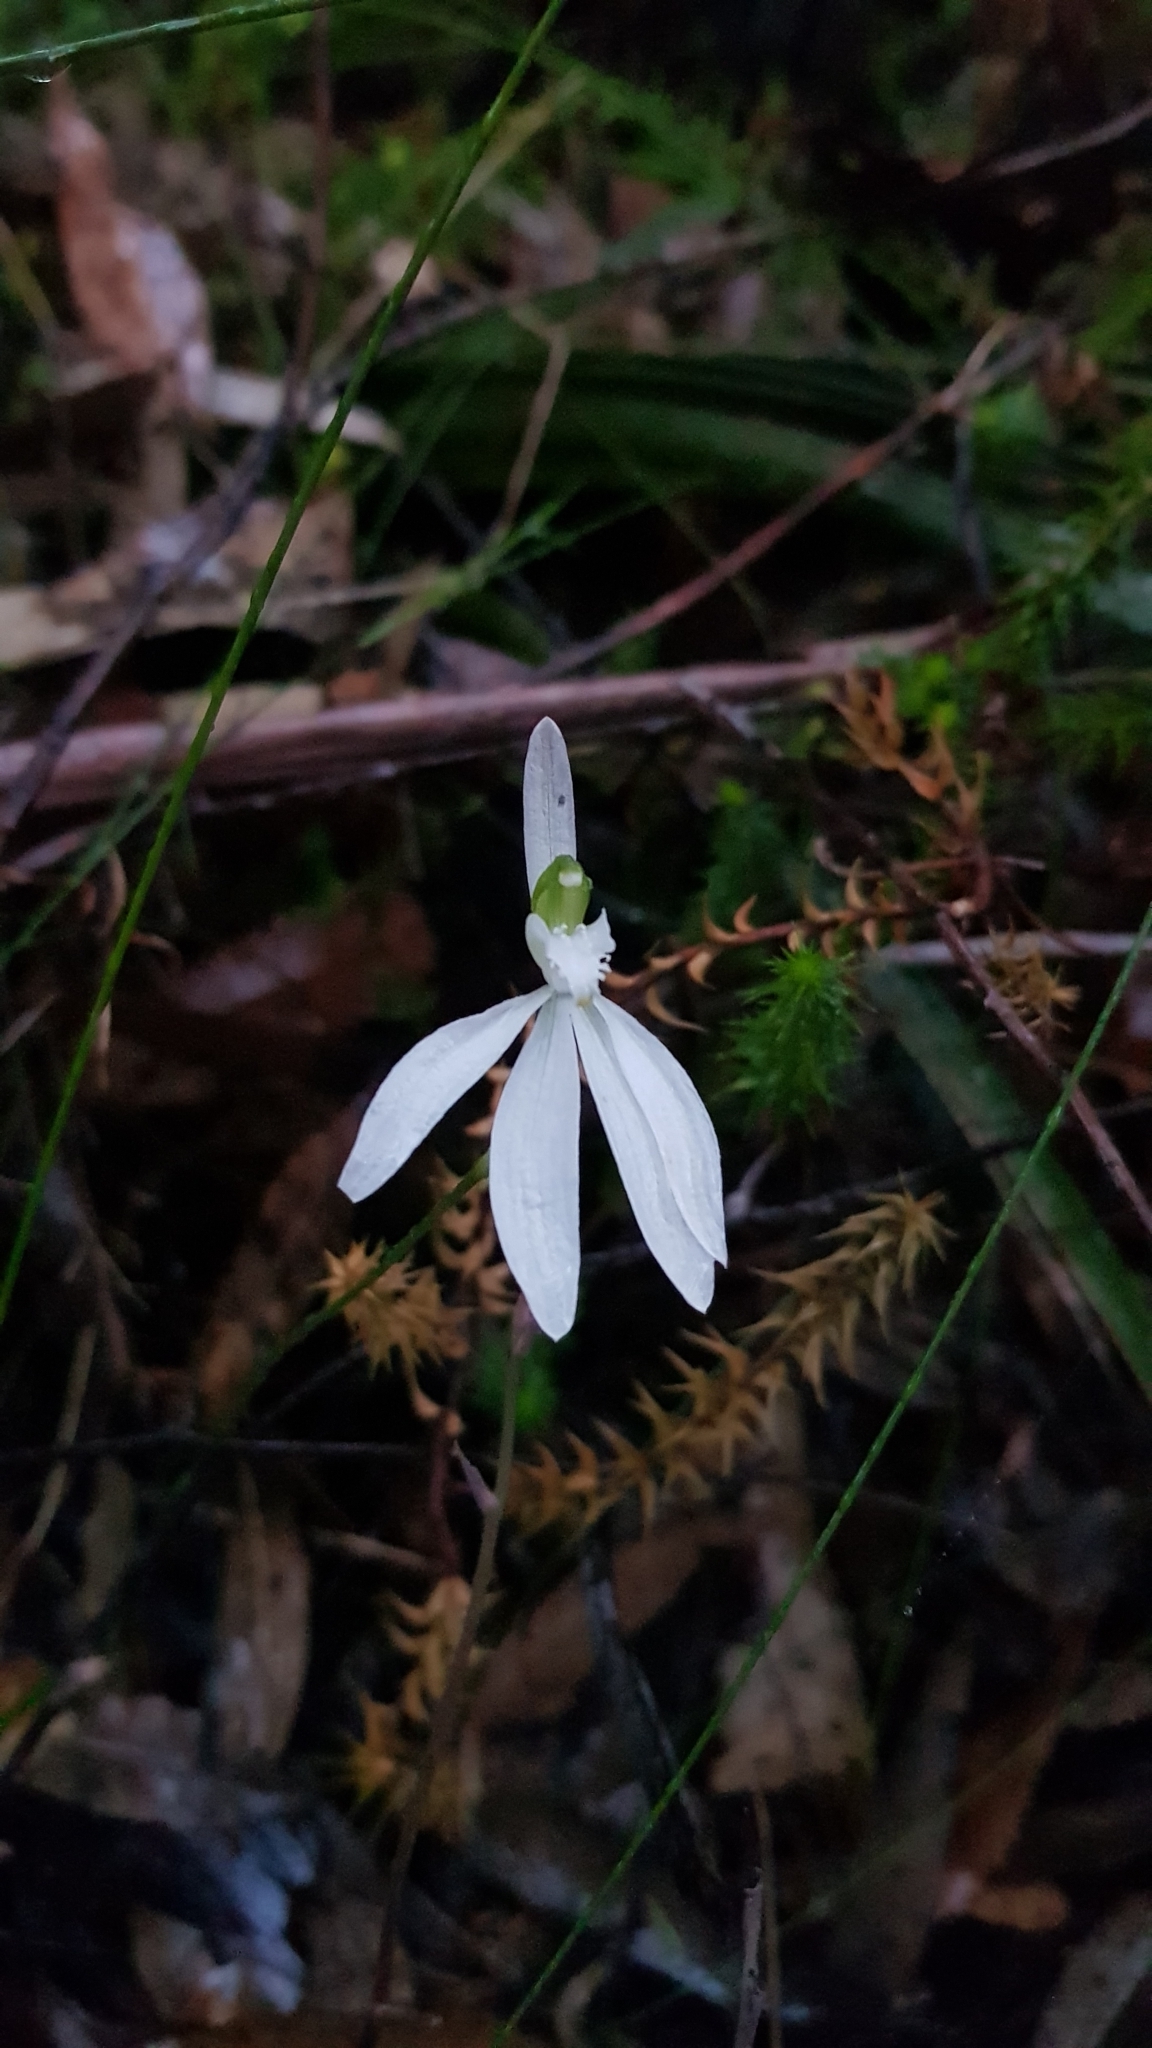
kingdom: Plantae
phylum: Tracheophyta
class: Liliopsida
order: Asparagales
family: Orchidaceae
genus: Caladenia
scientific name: Caladenia catenata
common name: White caladenia
